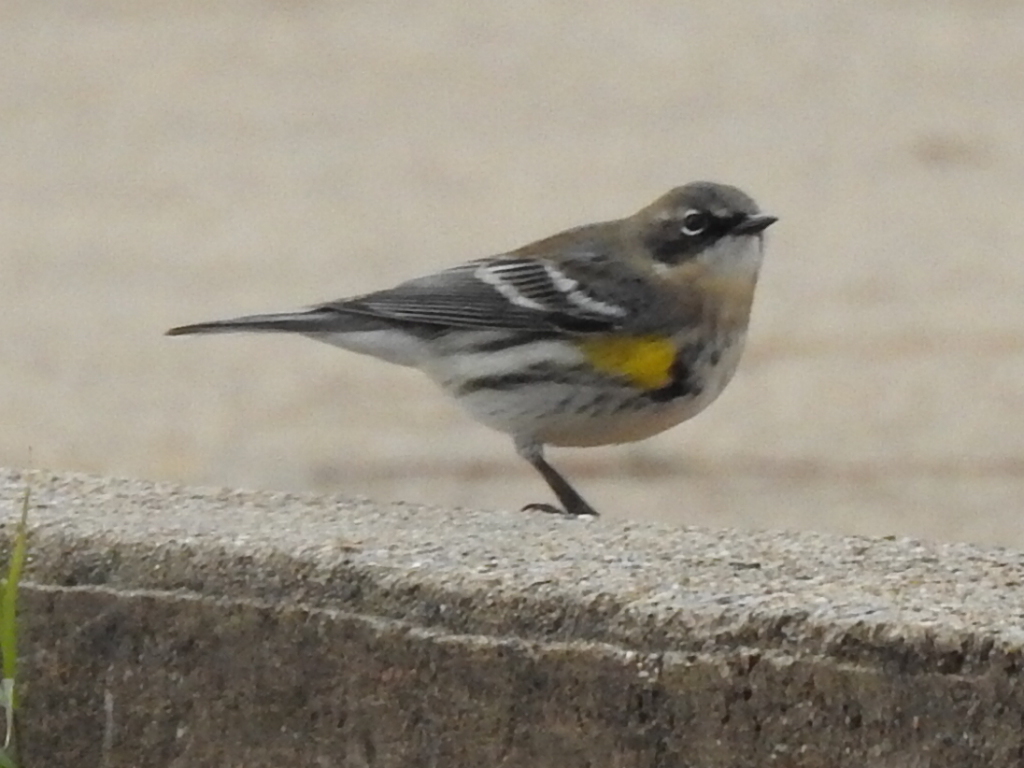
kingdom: Animalia
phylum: Chordata
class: Aves
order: Passeriformes
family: Parulidae
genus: Setophaga
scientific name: Setophaga coronata
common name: Myrtle warbler
